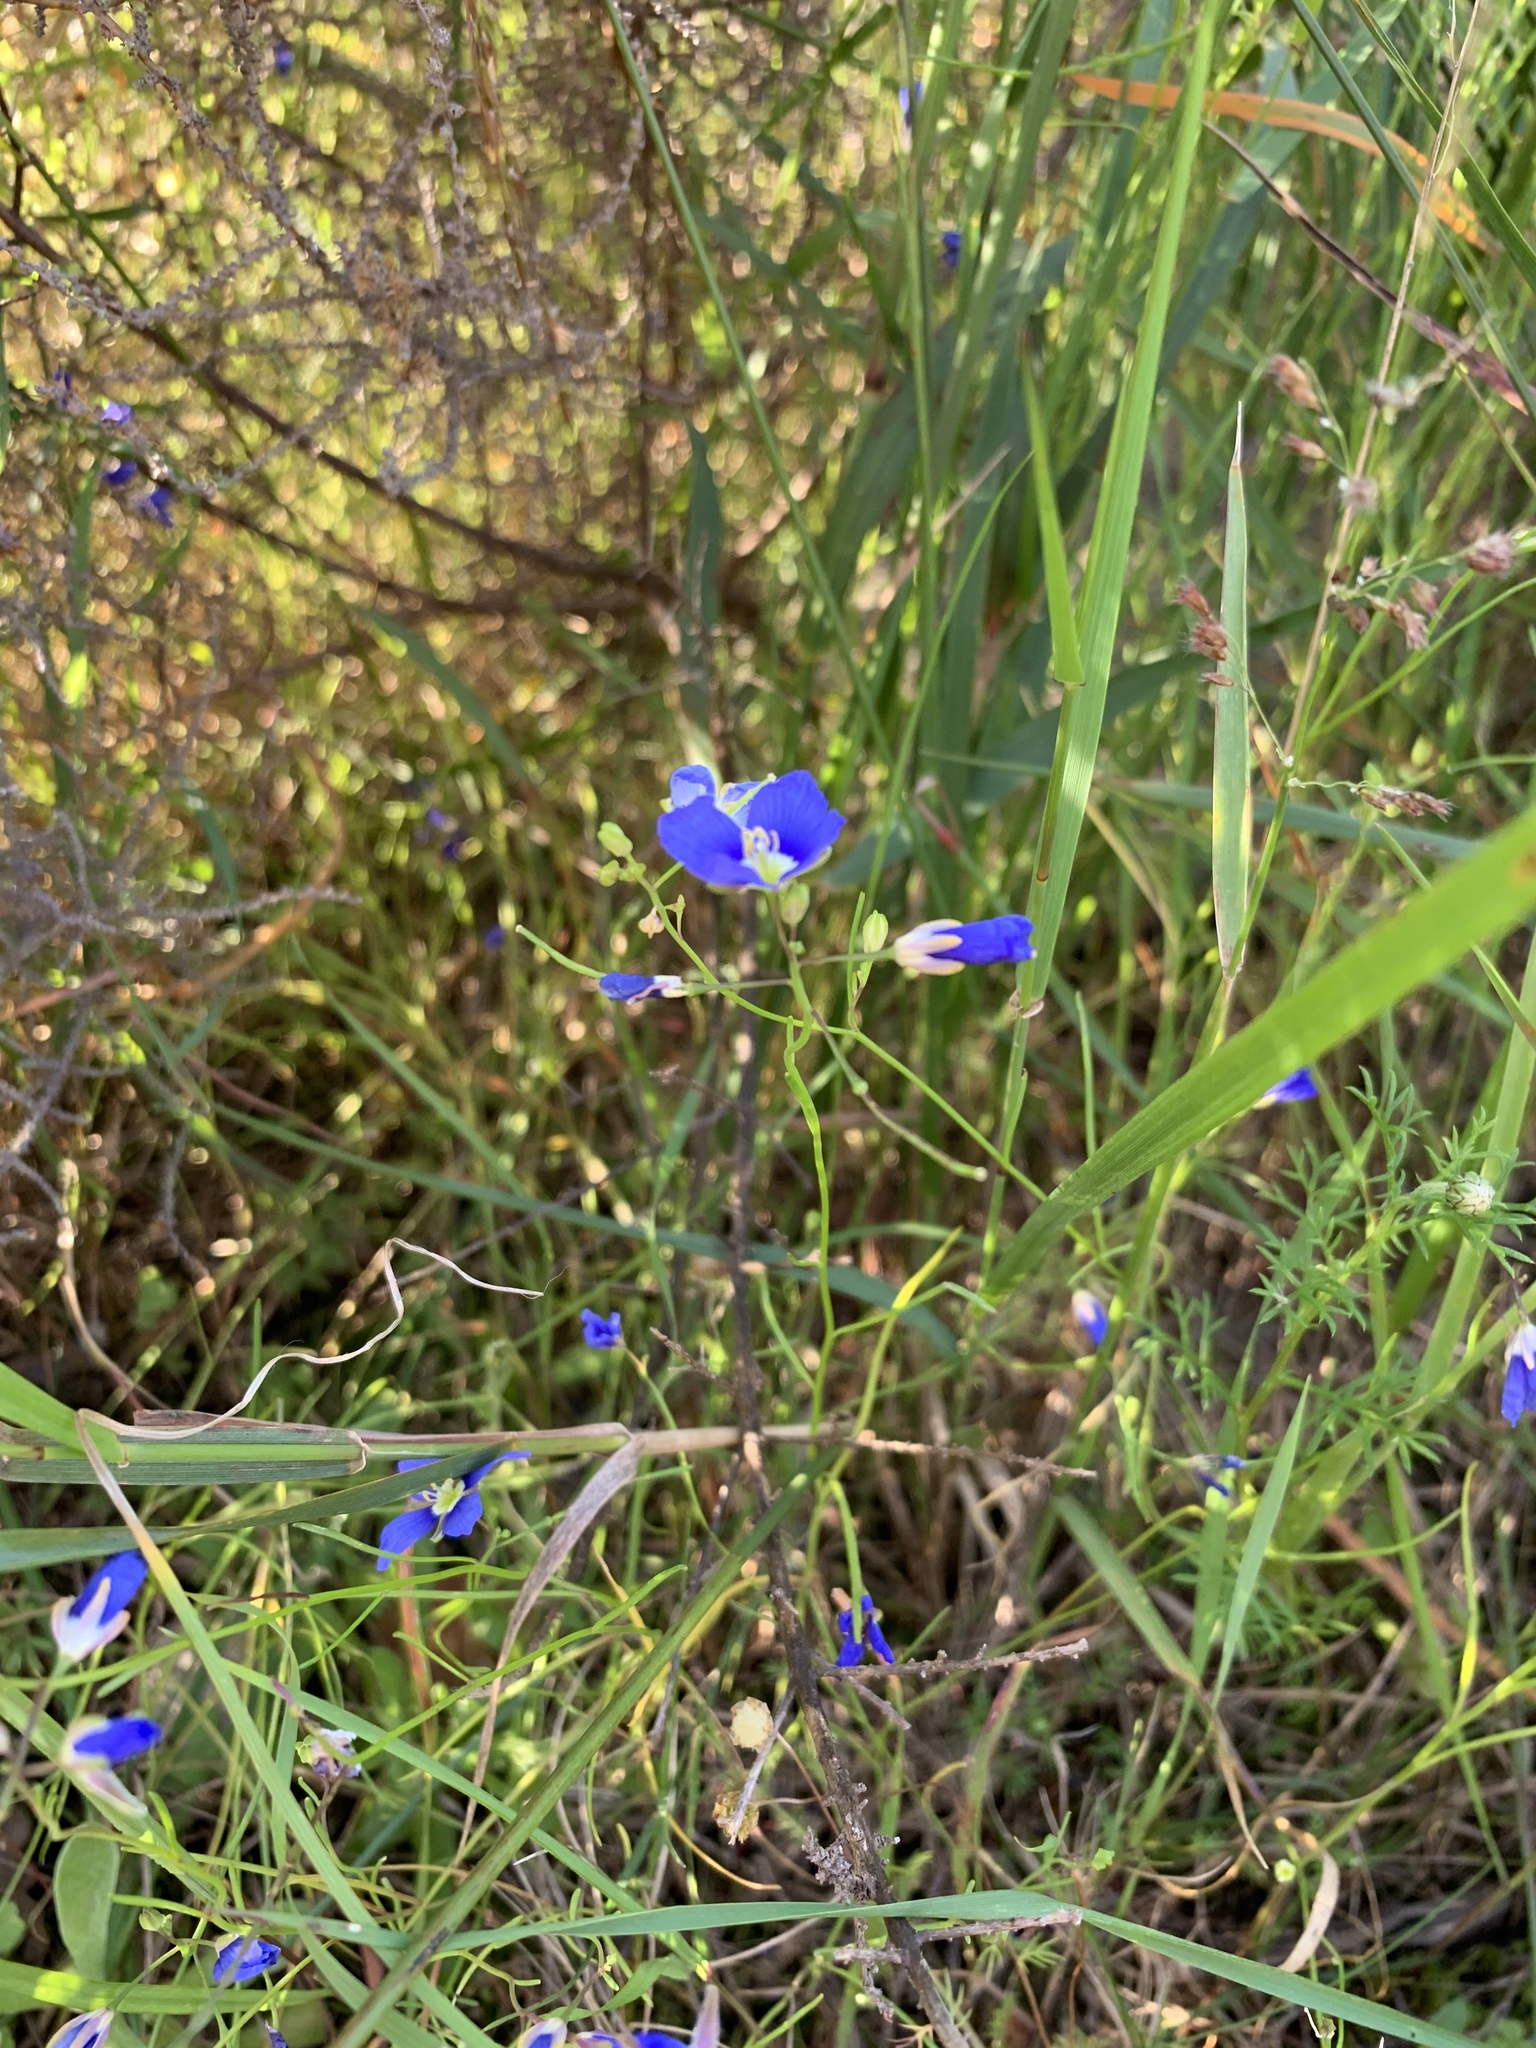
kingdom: Plantae
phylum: Tracheophyta
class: Magnoliopsida
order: Brassicales
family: Brassicaceae
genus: Heliophila
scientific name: Heliophila coronopifolia
